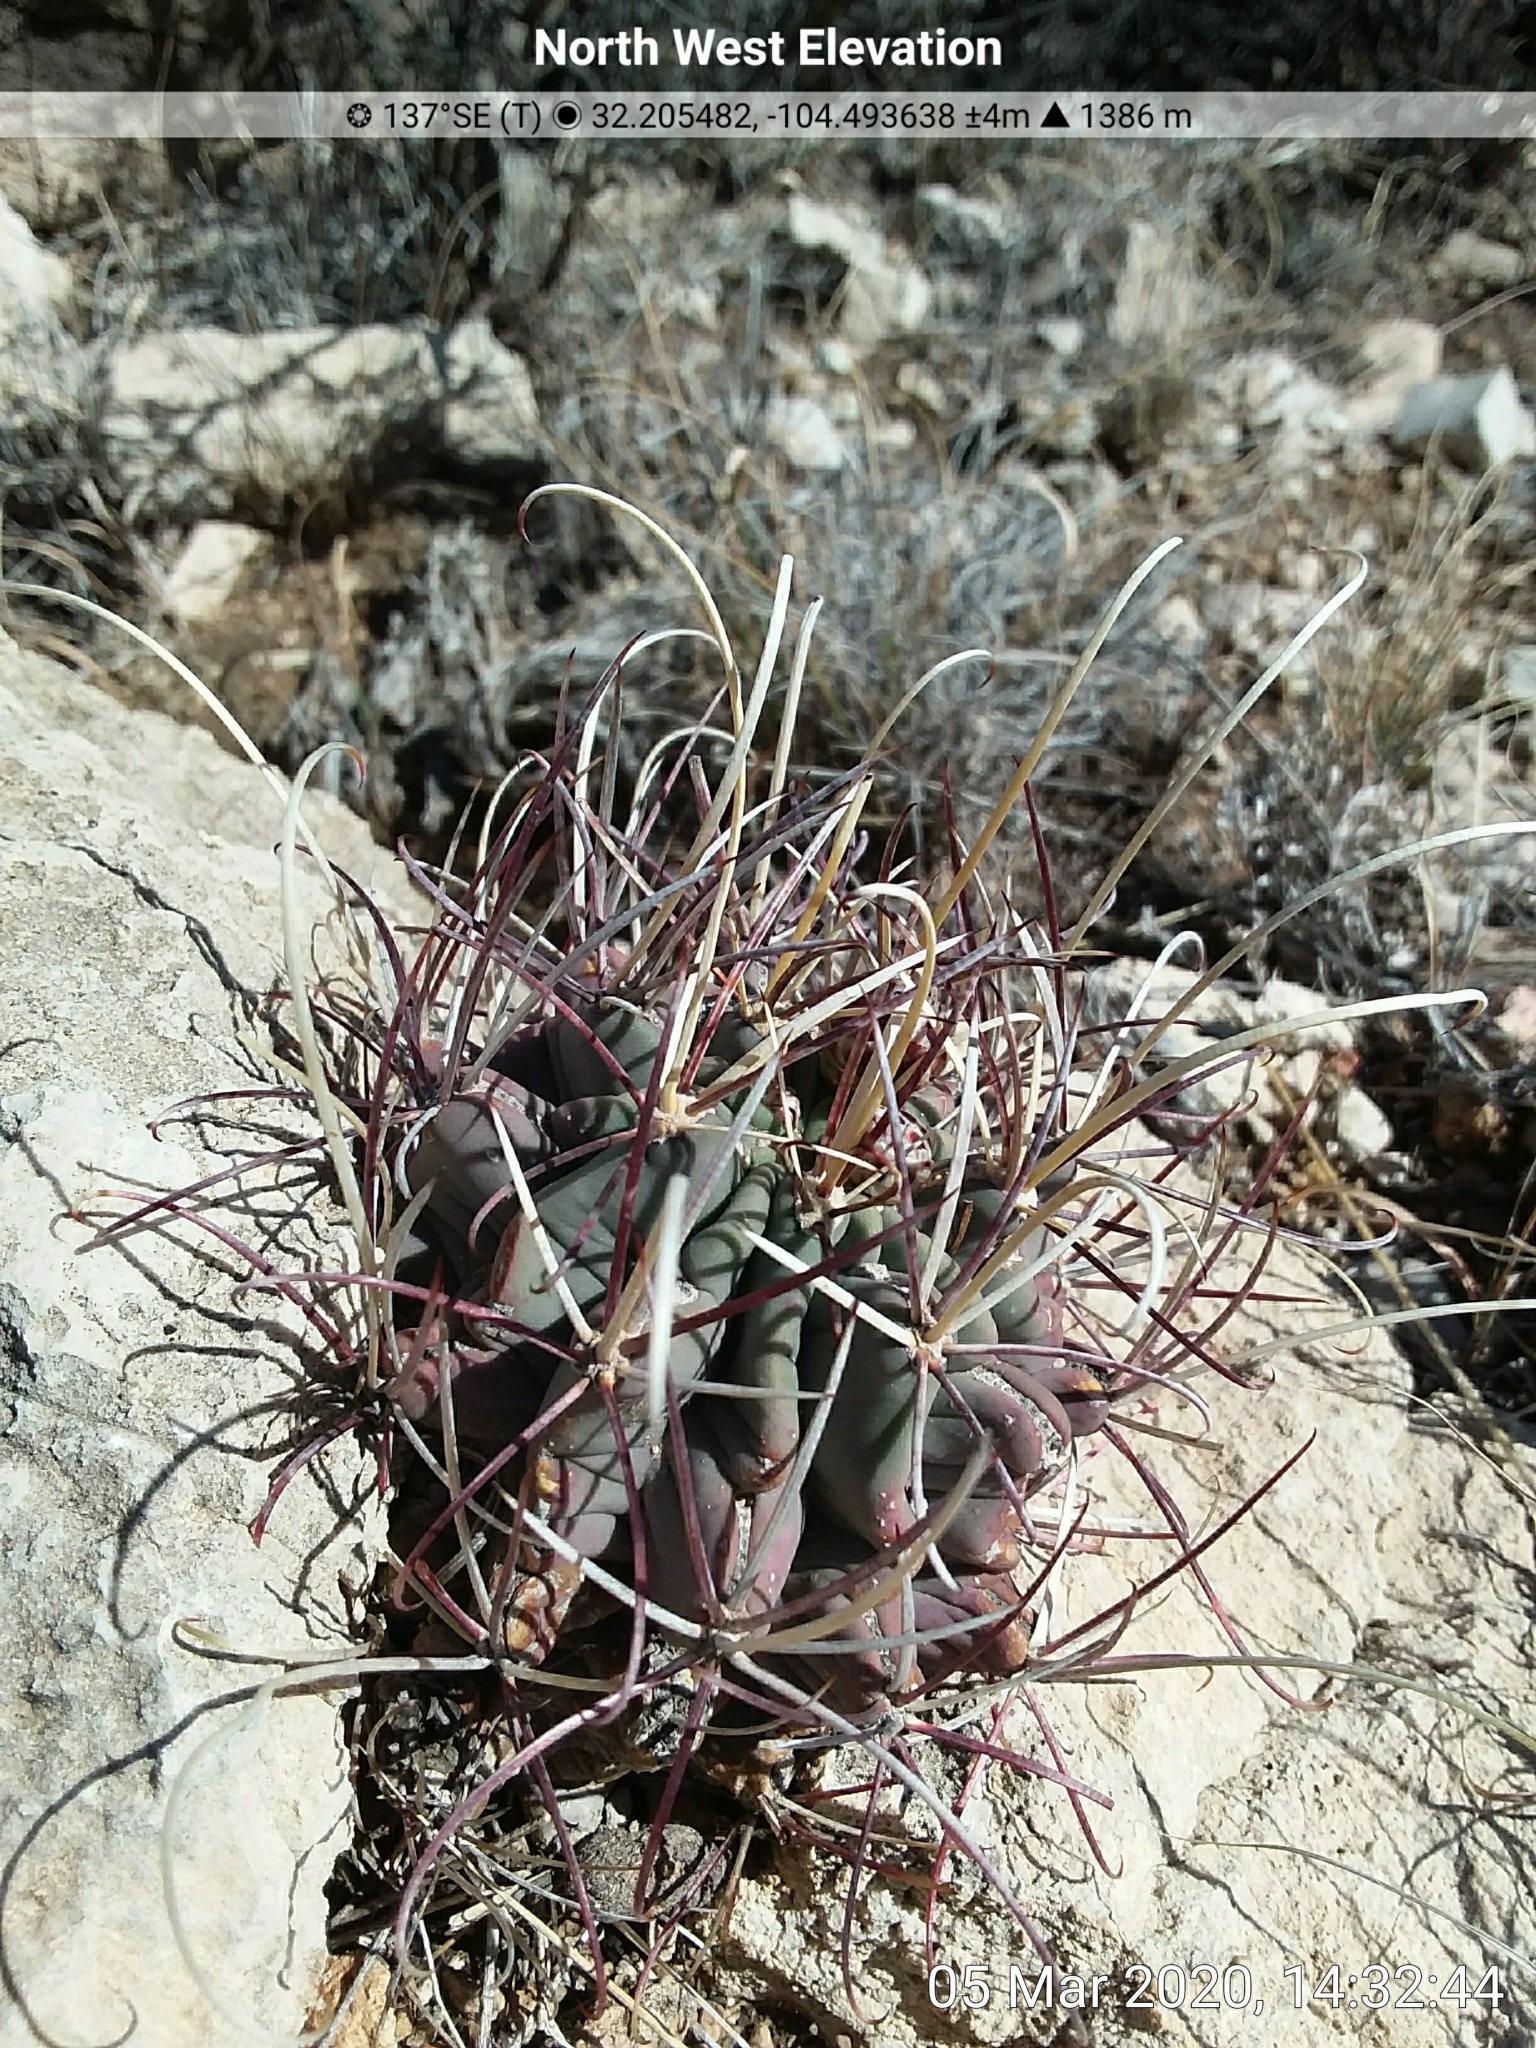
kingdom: Plantae
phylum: Tracheophyta
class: Magnoliopsida
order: Caryophyllales
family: Cactaceae
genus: Ferocactus
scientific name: Ferocactus uncinatus
